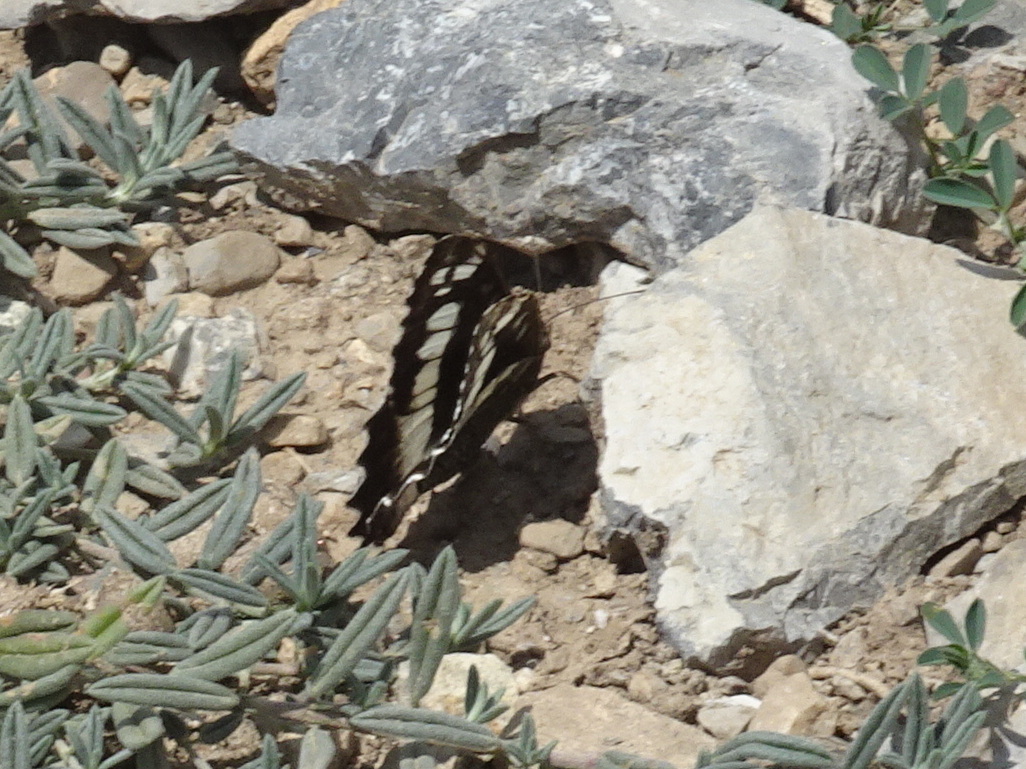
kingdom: Animalia
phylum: Arthropoda
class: Insecta
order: Lepidoptera
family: Lycaenidae
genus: Loweia
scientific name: Loweia tityrus
